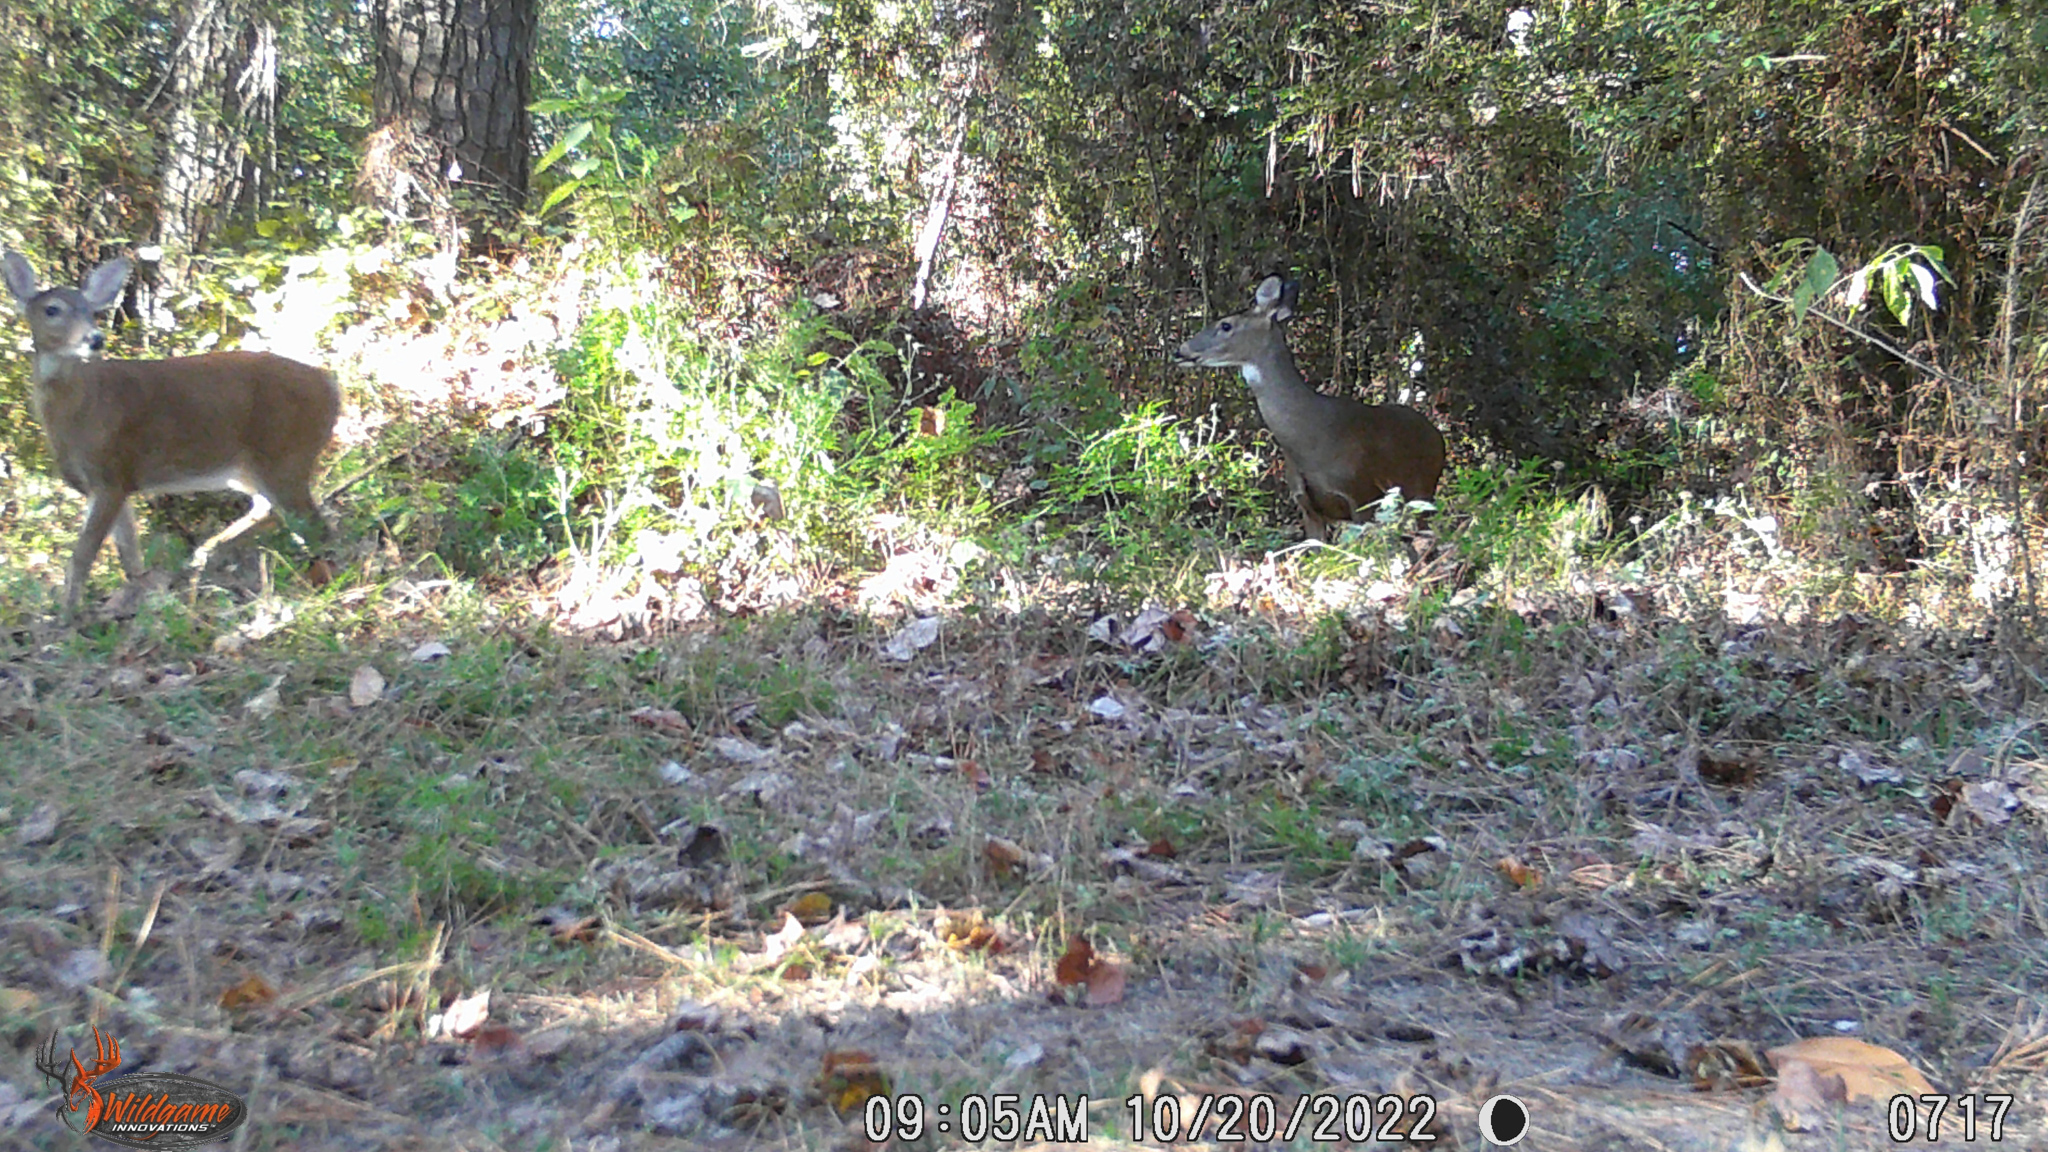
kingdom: Animalia
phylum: Chordata
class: Mammalia
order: Artiodactyla
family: Cervidae
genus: Odocoileus
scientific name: Odocoileus virginianus
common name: White-tailed deer
